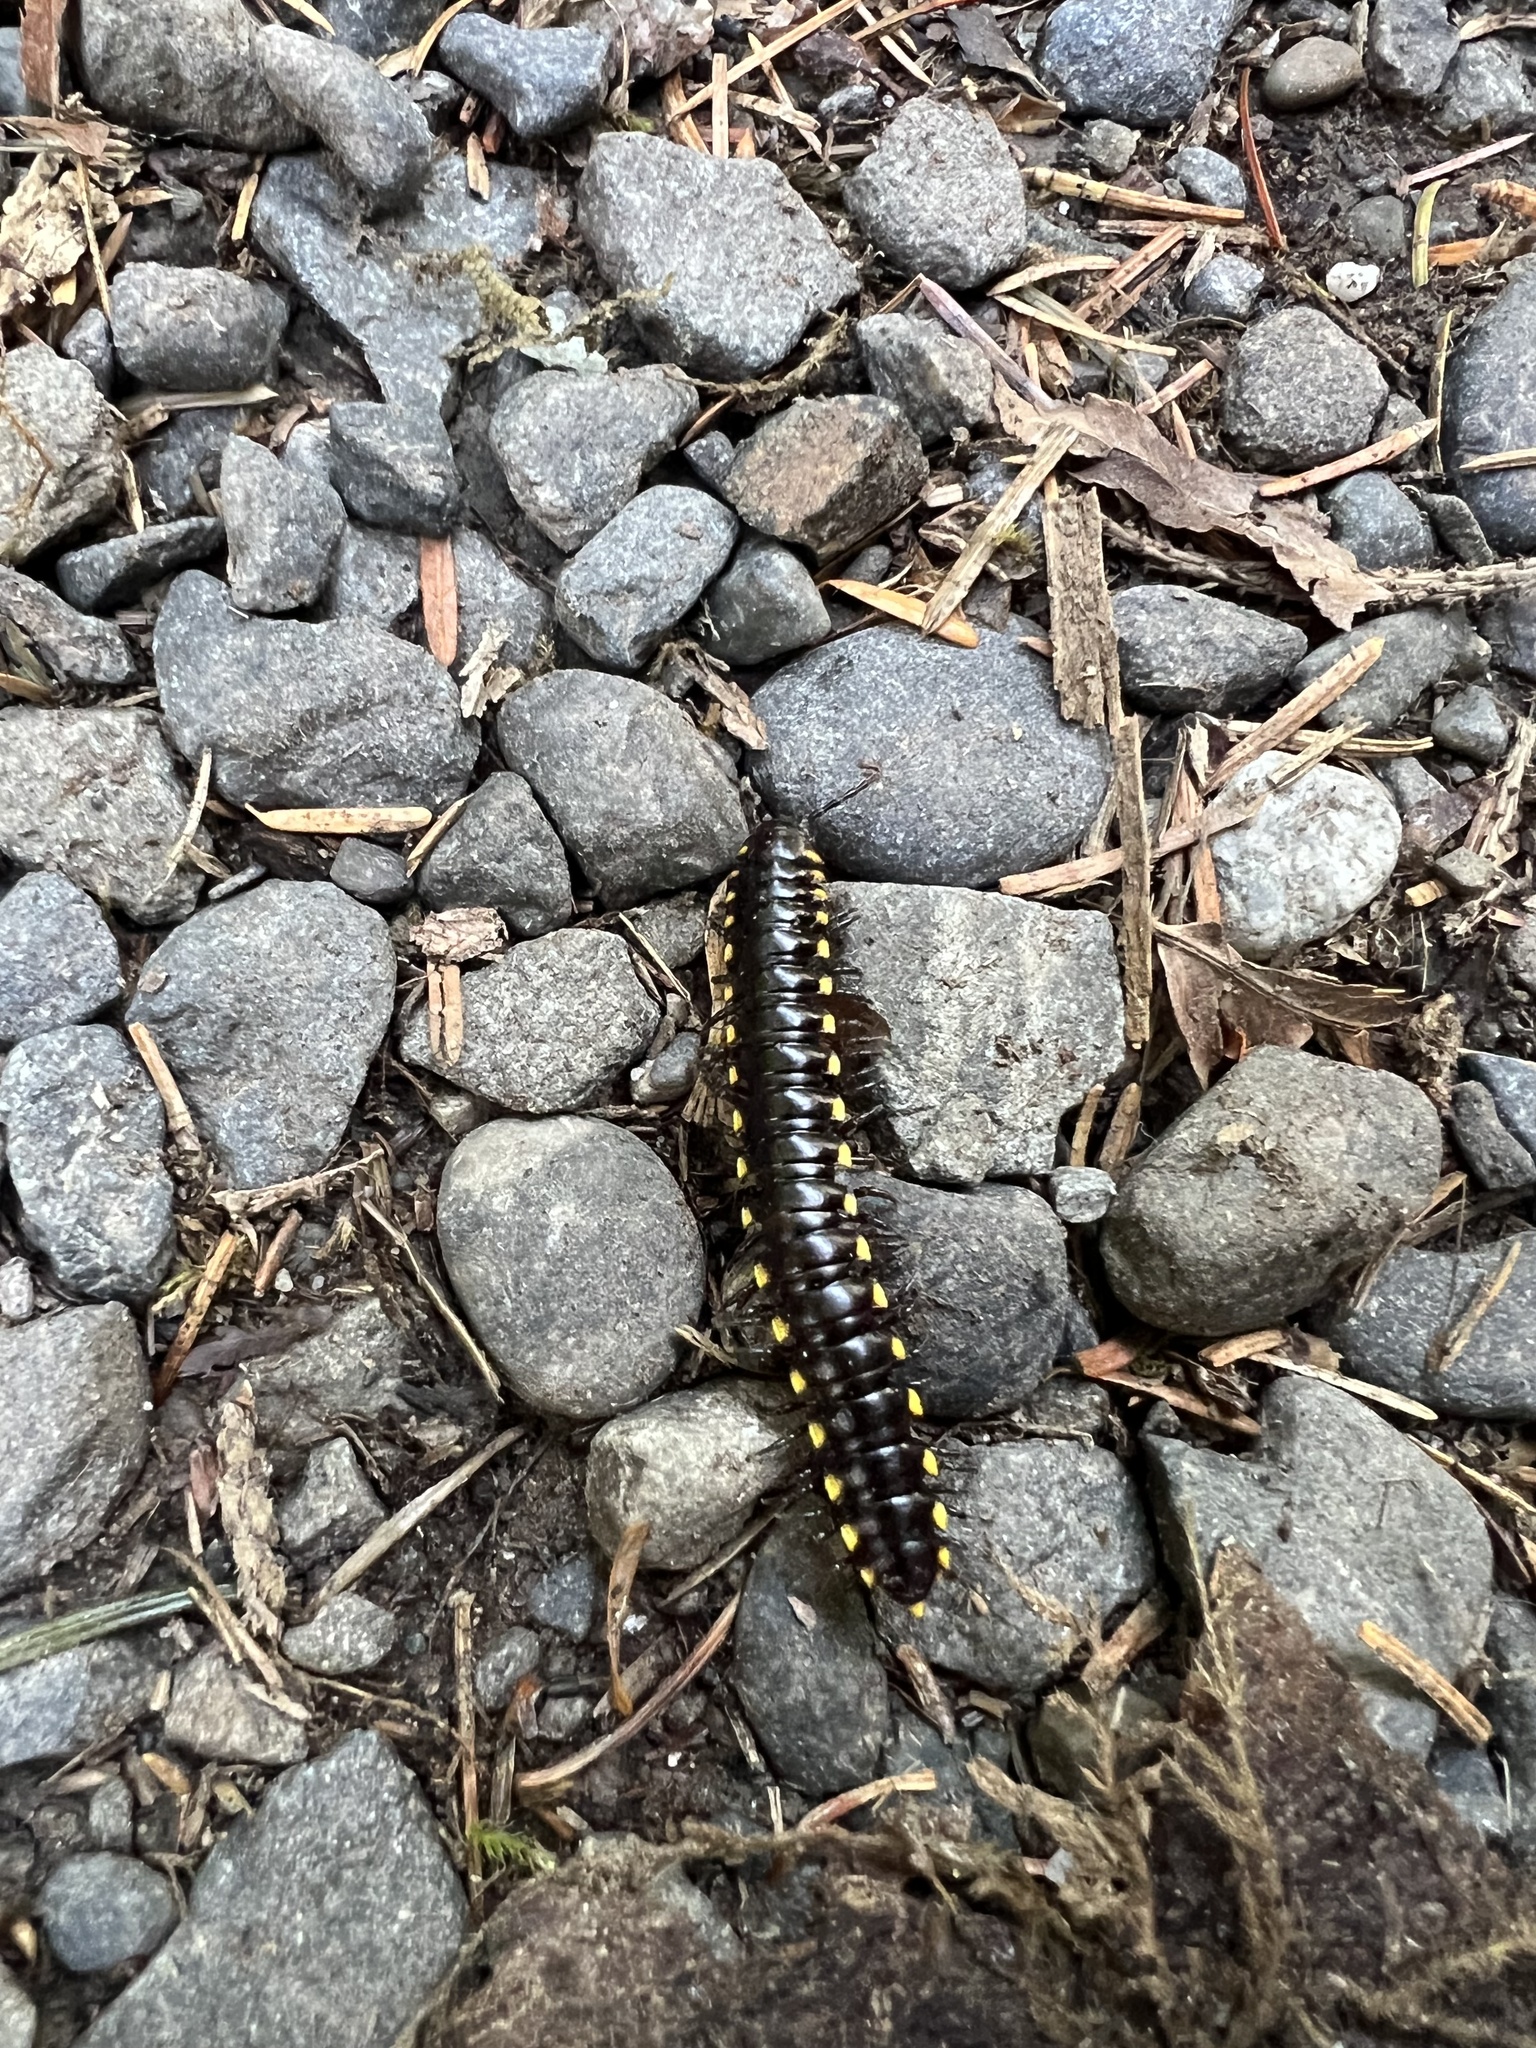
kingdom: Animalia
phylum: Arthropoda
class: Diplopoda
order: Polydesmida
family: Xystodesmidae
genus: Harpaphe
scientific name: Harpaphe haydeniana
